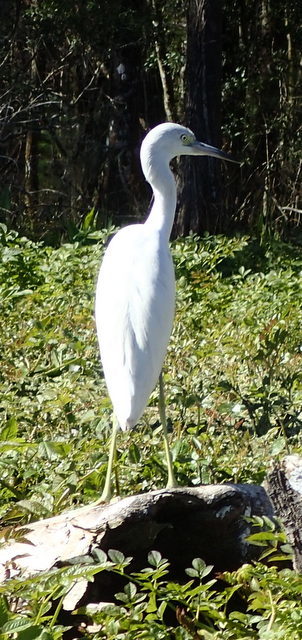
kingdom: Animalia
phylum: Chordata
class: Aves
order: Pelecaniformes
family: Ardeidae
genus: Egretta
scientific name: Egretta caerulea
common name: Little blue heron
